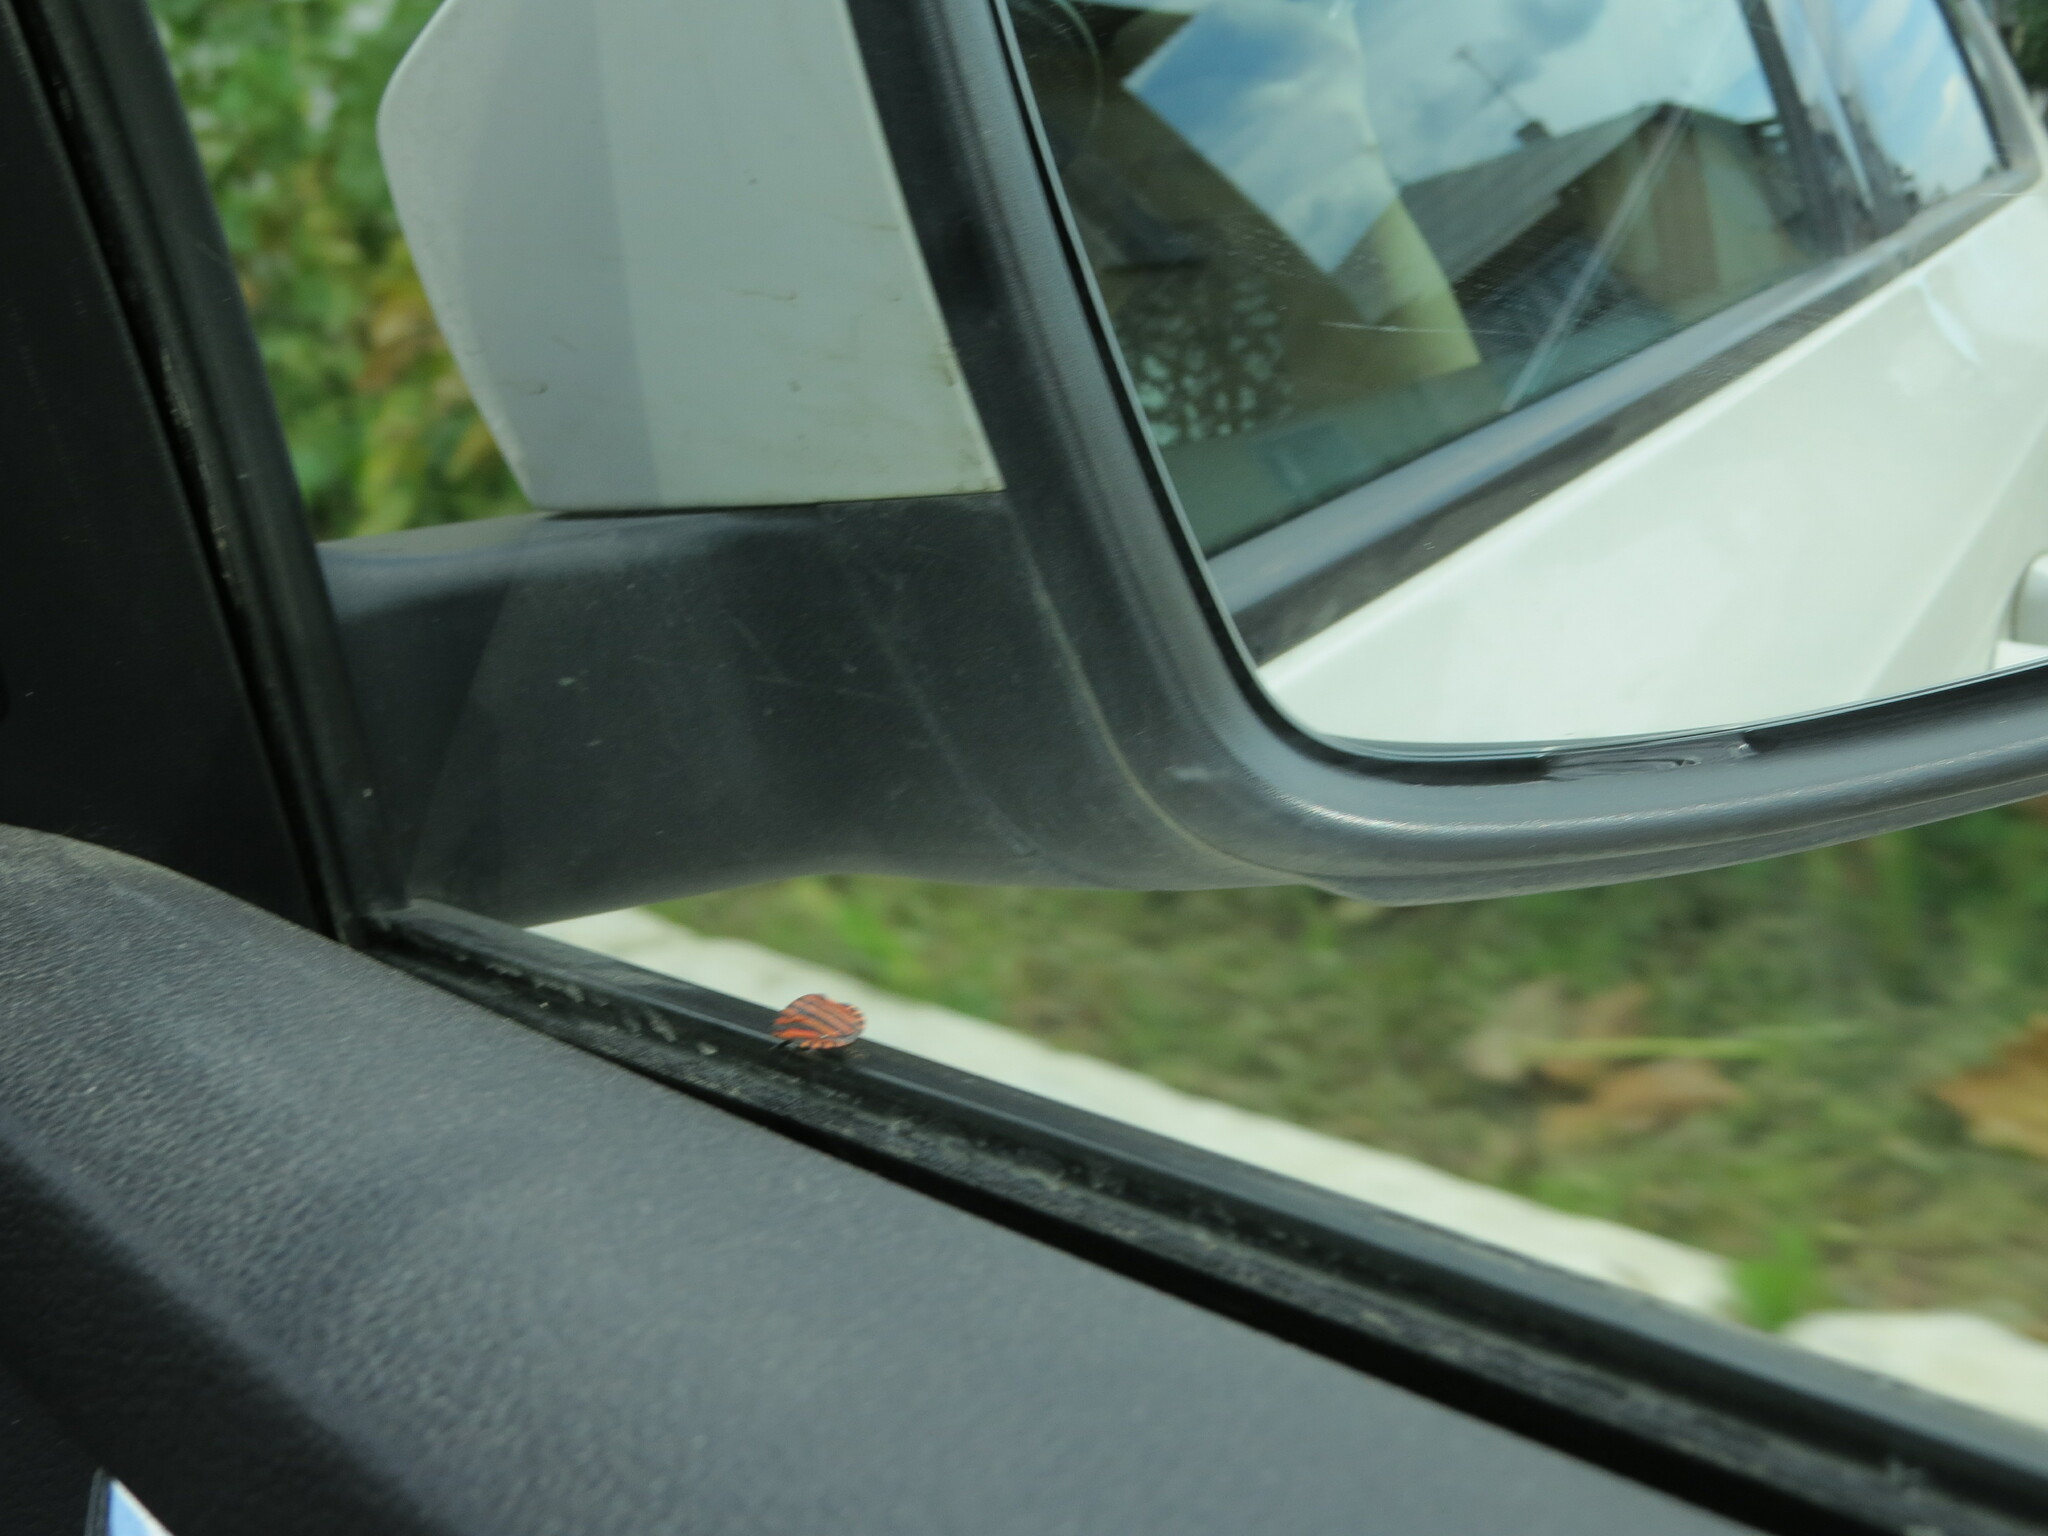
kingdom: Animalia
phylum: Arthropoda
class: Insecta
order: Hemiptera
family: Pentatomidae
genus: Graphosoma
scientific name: Graphosoma italicum
